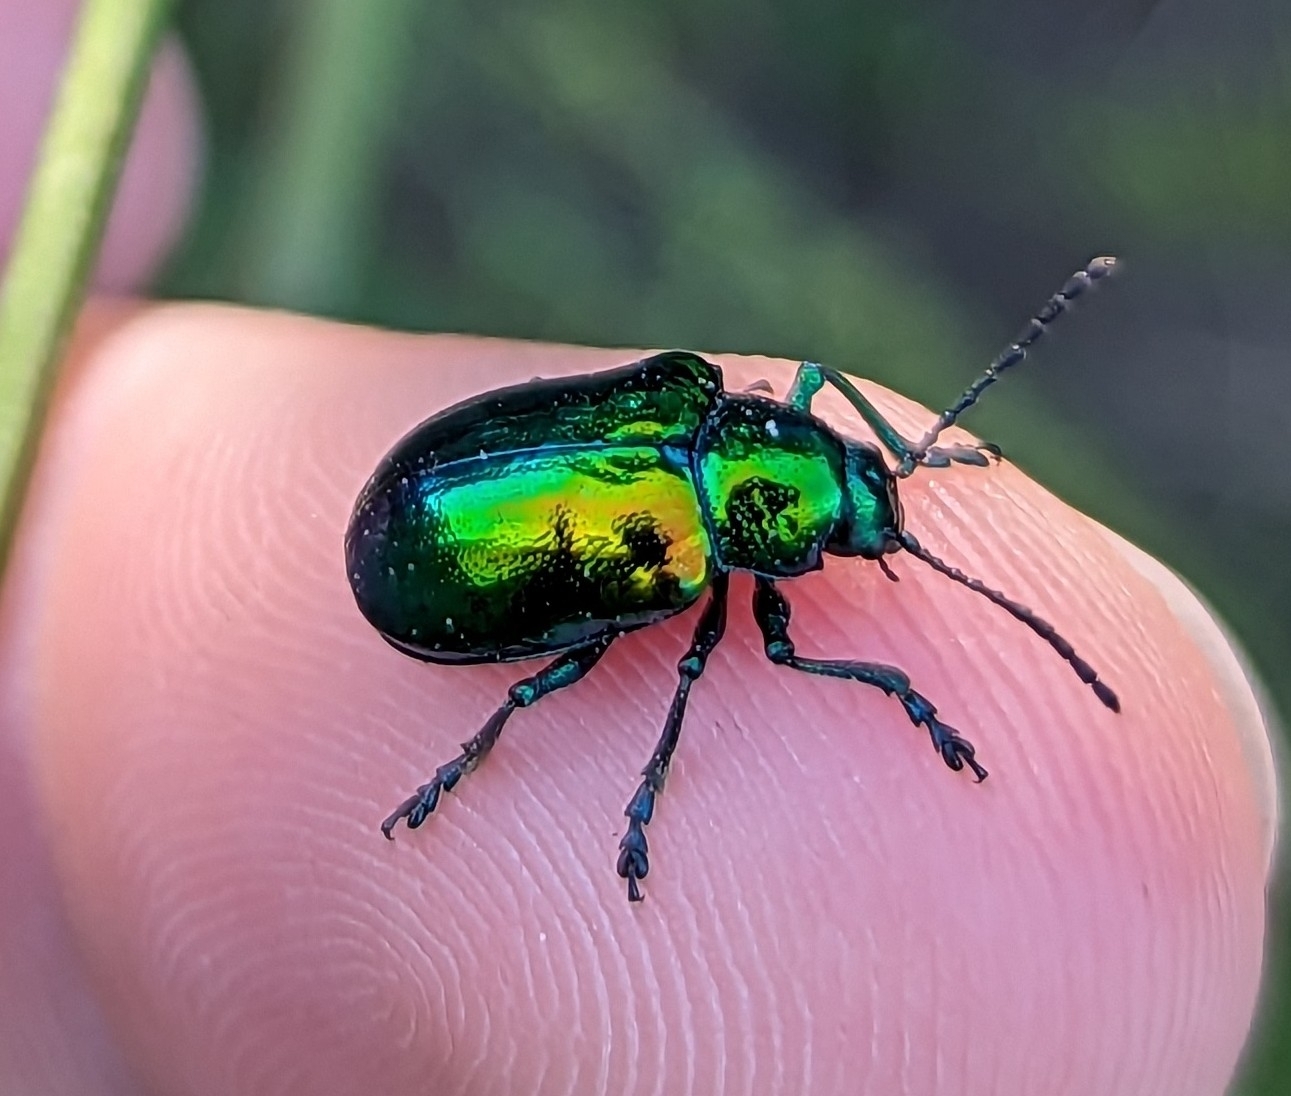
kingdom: Animalia
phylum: Arthropoda
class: Insecta
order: Coleoptera
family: Chrysomelidae
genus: Chrysochus
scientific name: Chrysochus auratus
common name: Dogbane leaf beetle
